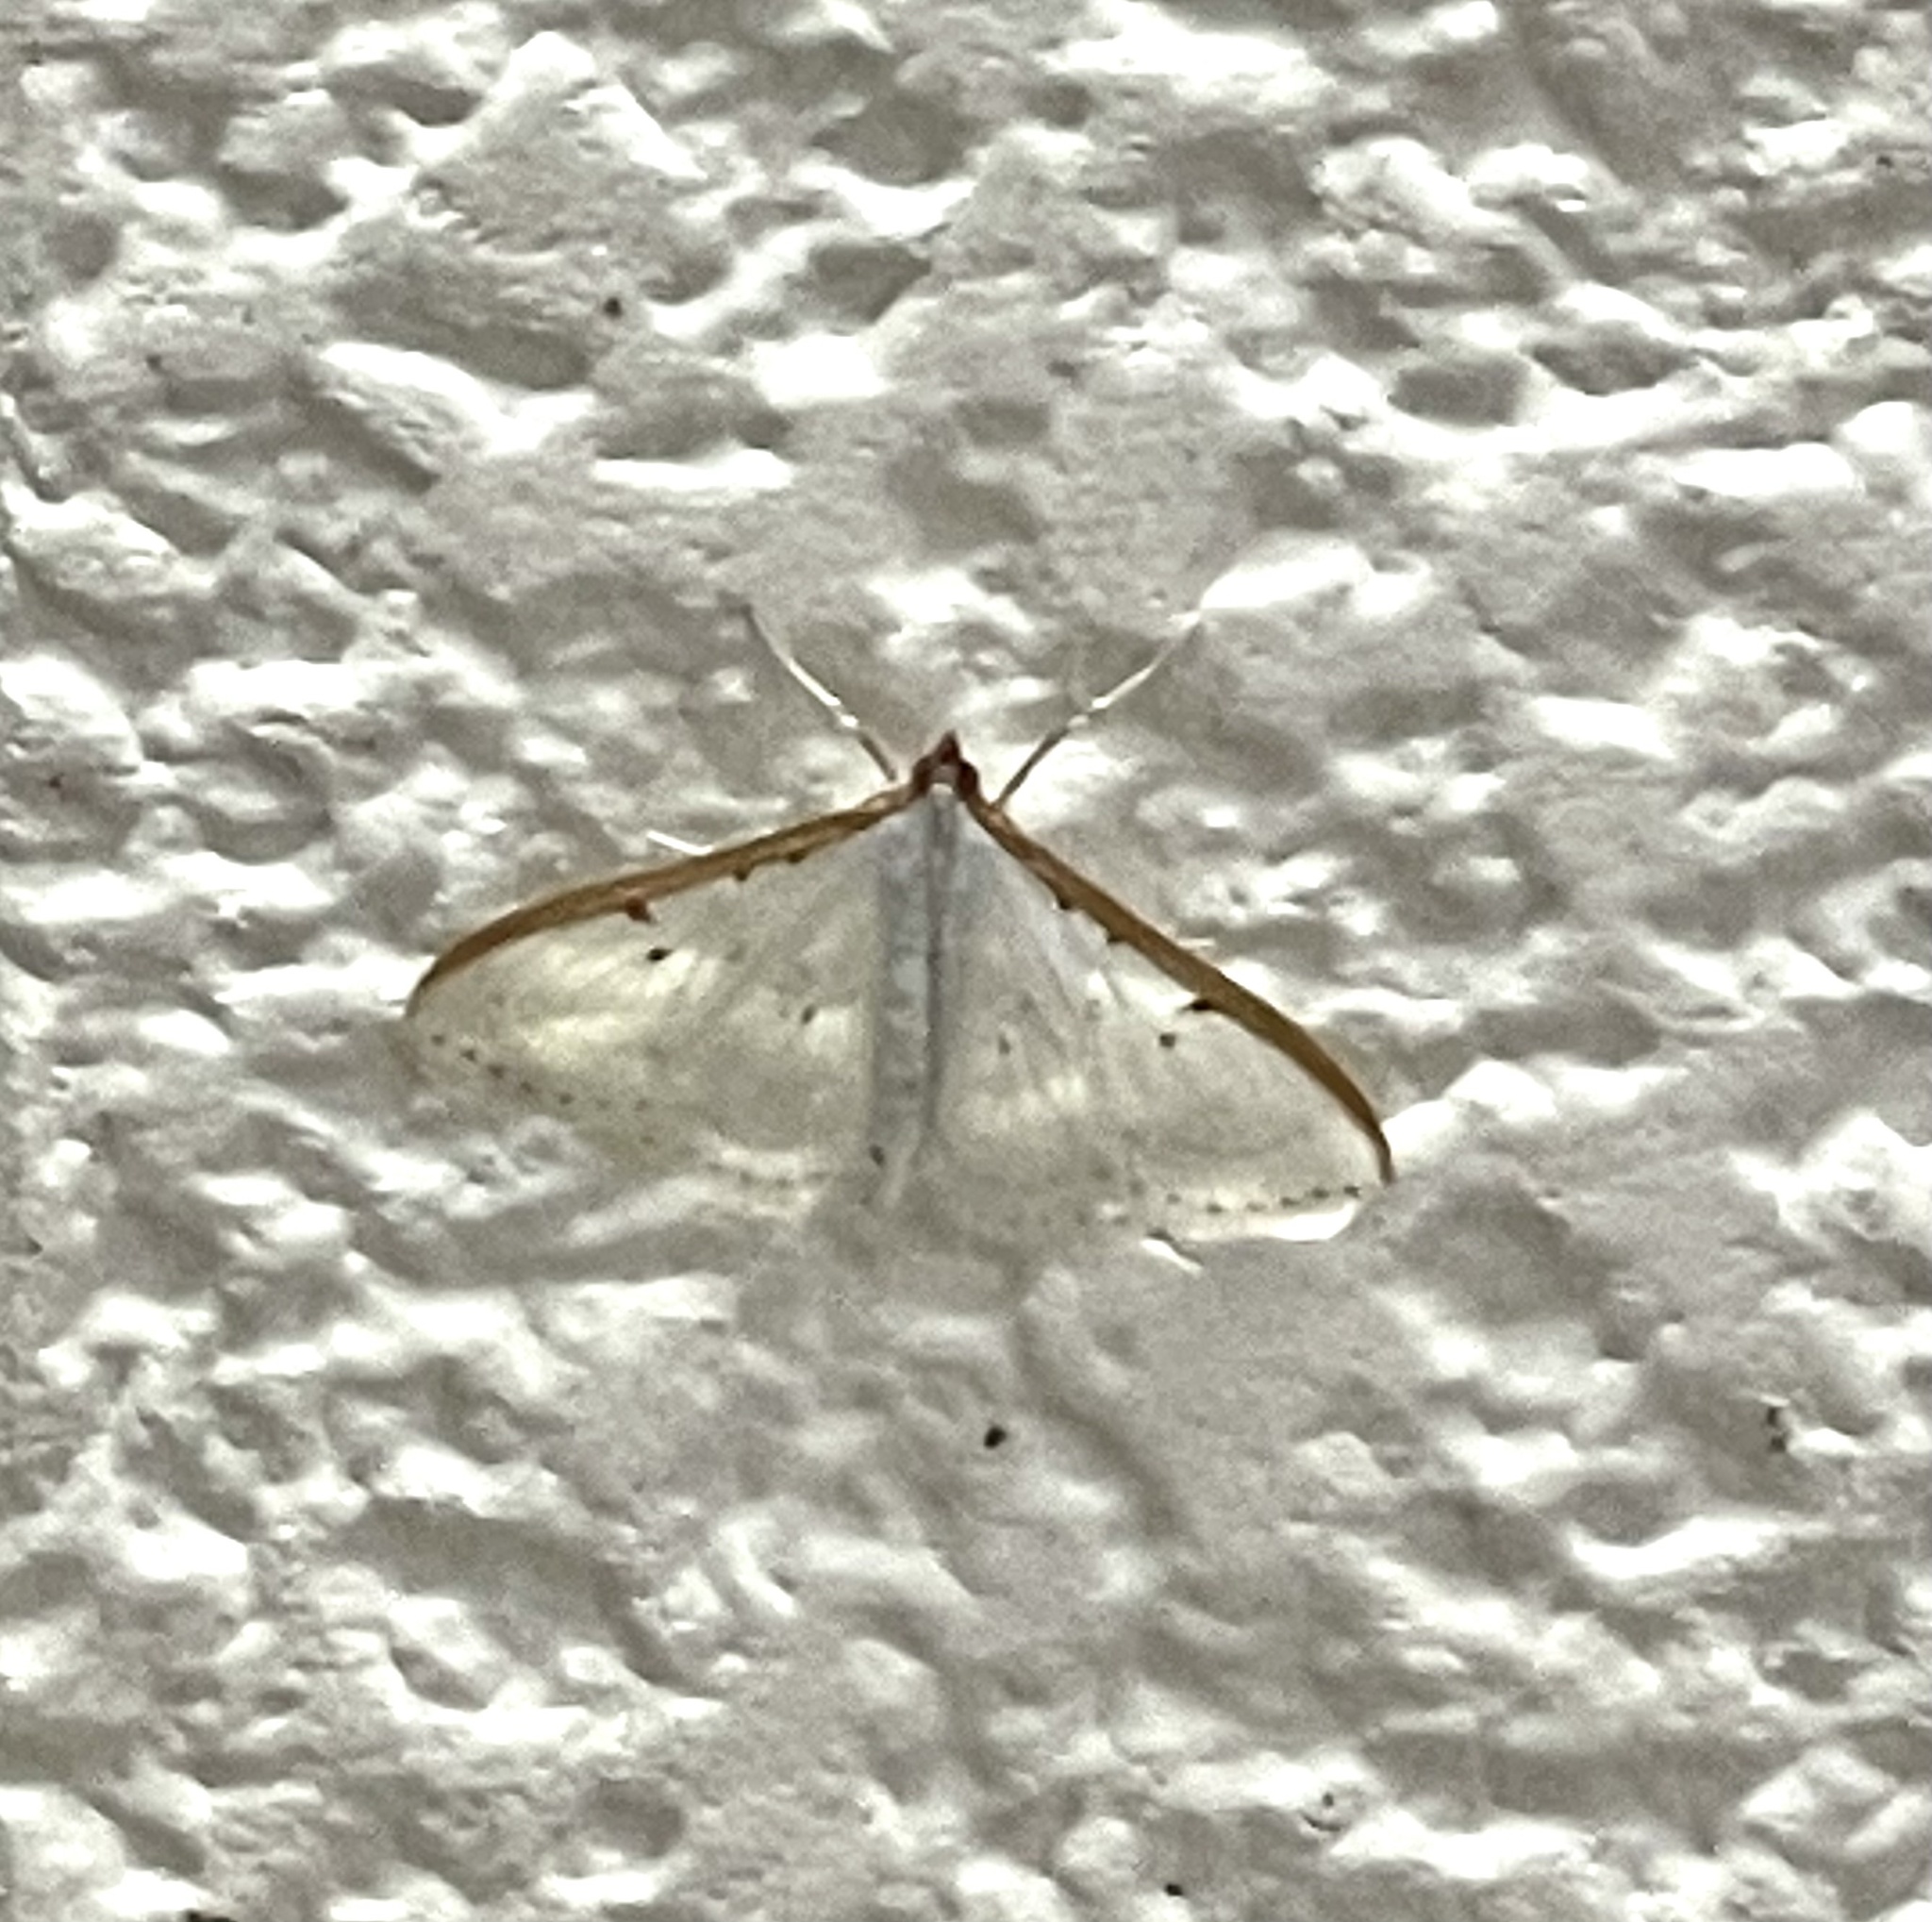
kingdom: Animalia
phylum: Arthropoda
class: Insecta
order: Lepidoptera
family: Crambidae
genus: Palpita
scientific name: Palpita nigropunctalis
